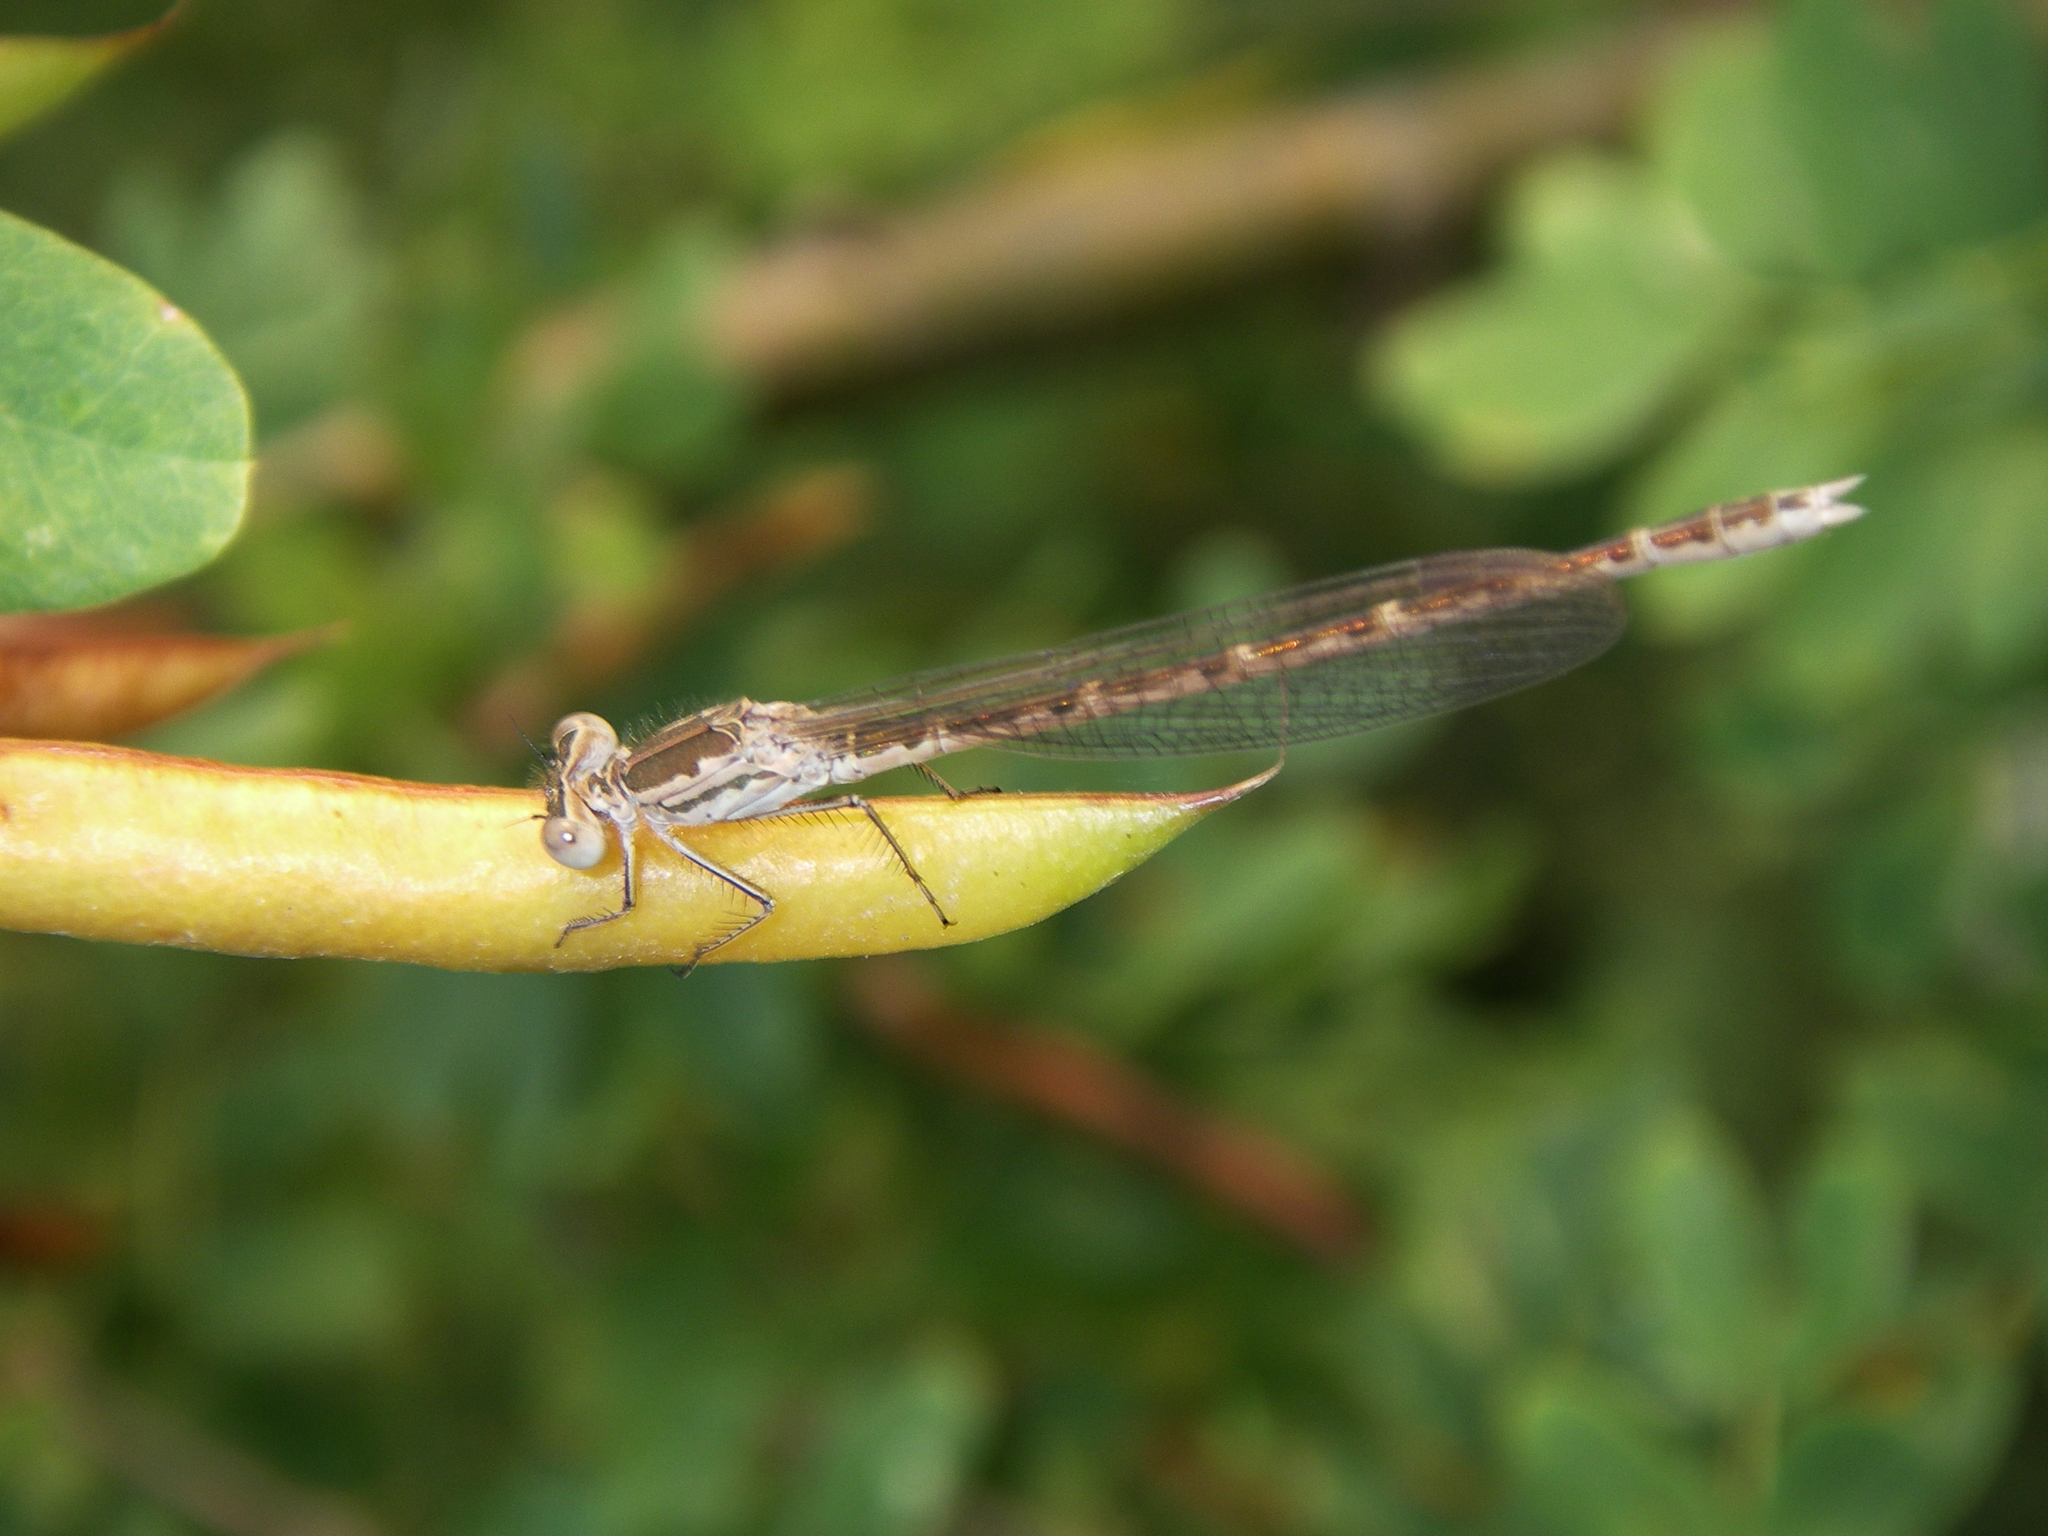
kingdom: Animalia
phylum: Arthropoda
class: Insecta
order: Odonata
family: Lestidae
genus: Sympecma
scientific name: Sympecma paedisca
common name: Siberian winter damsel
